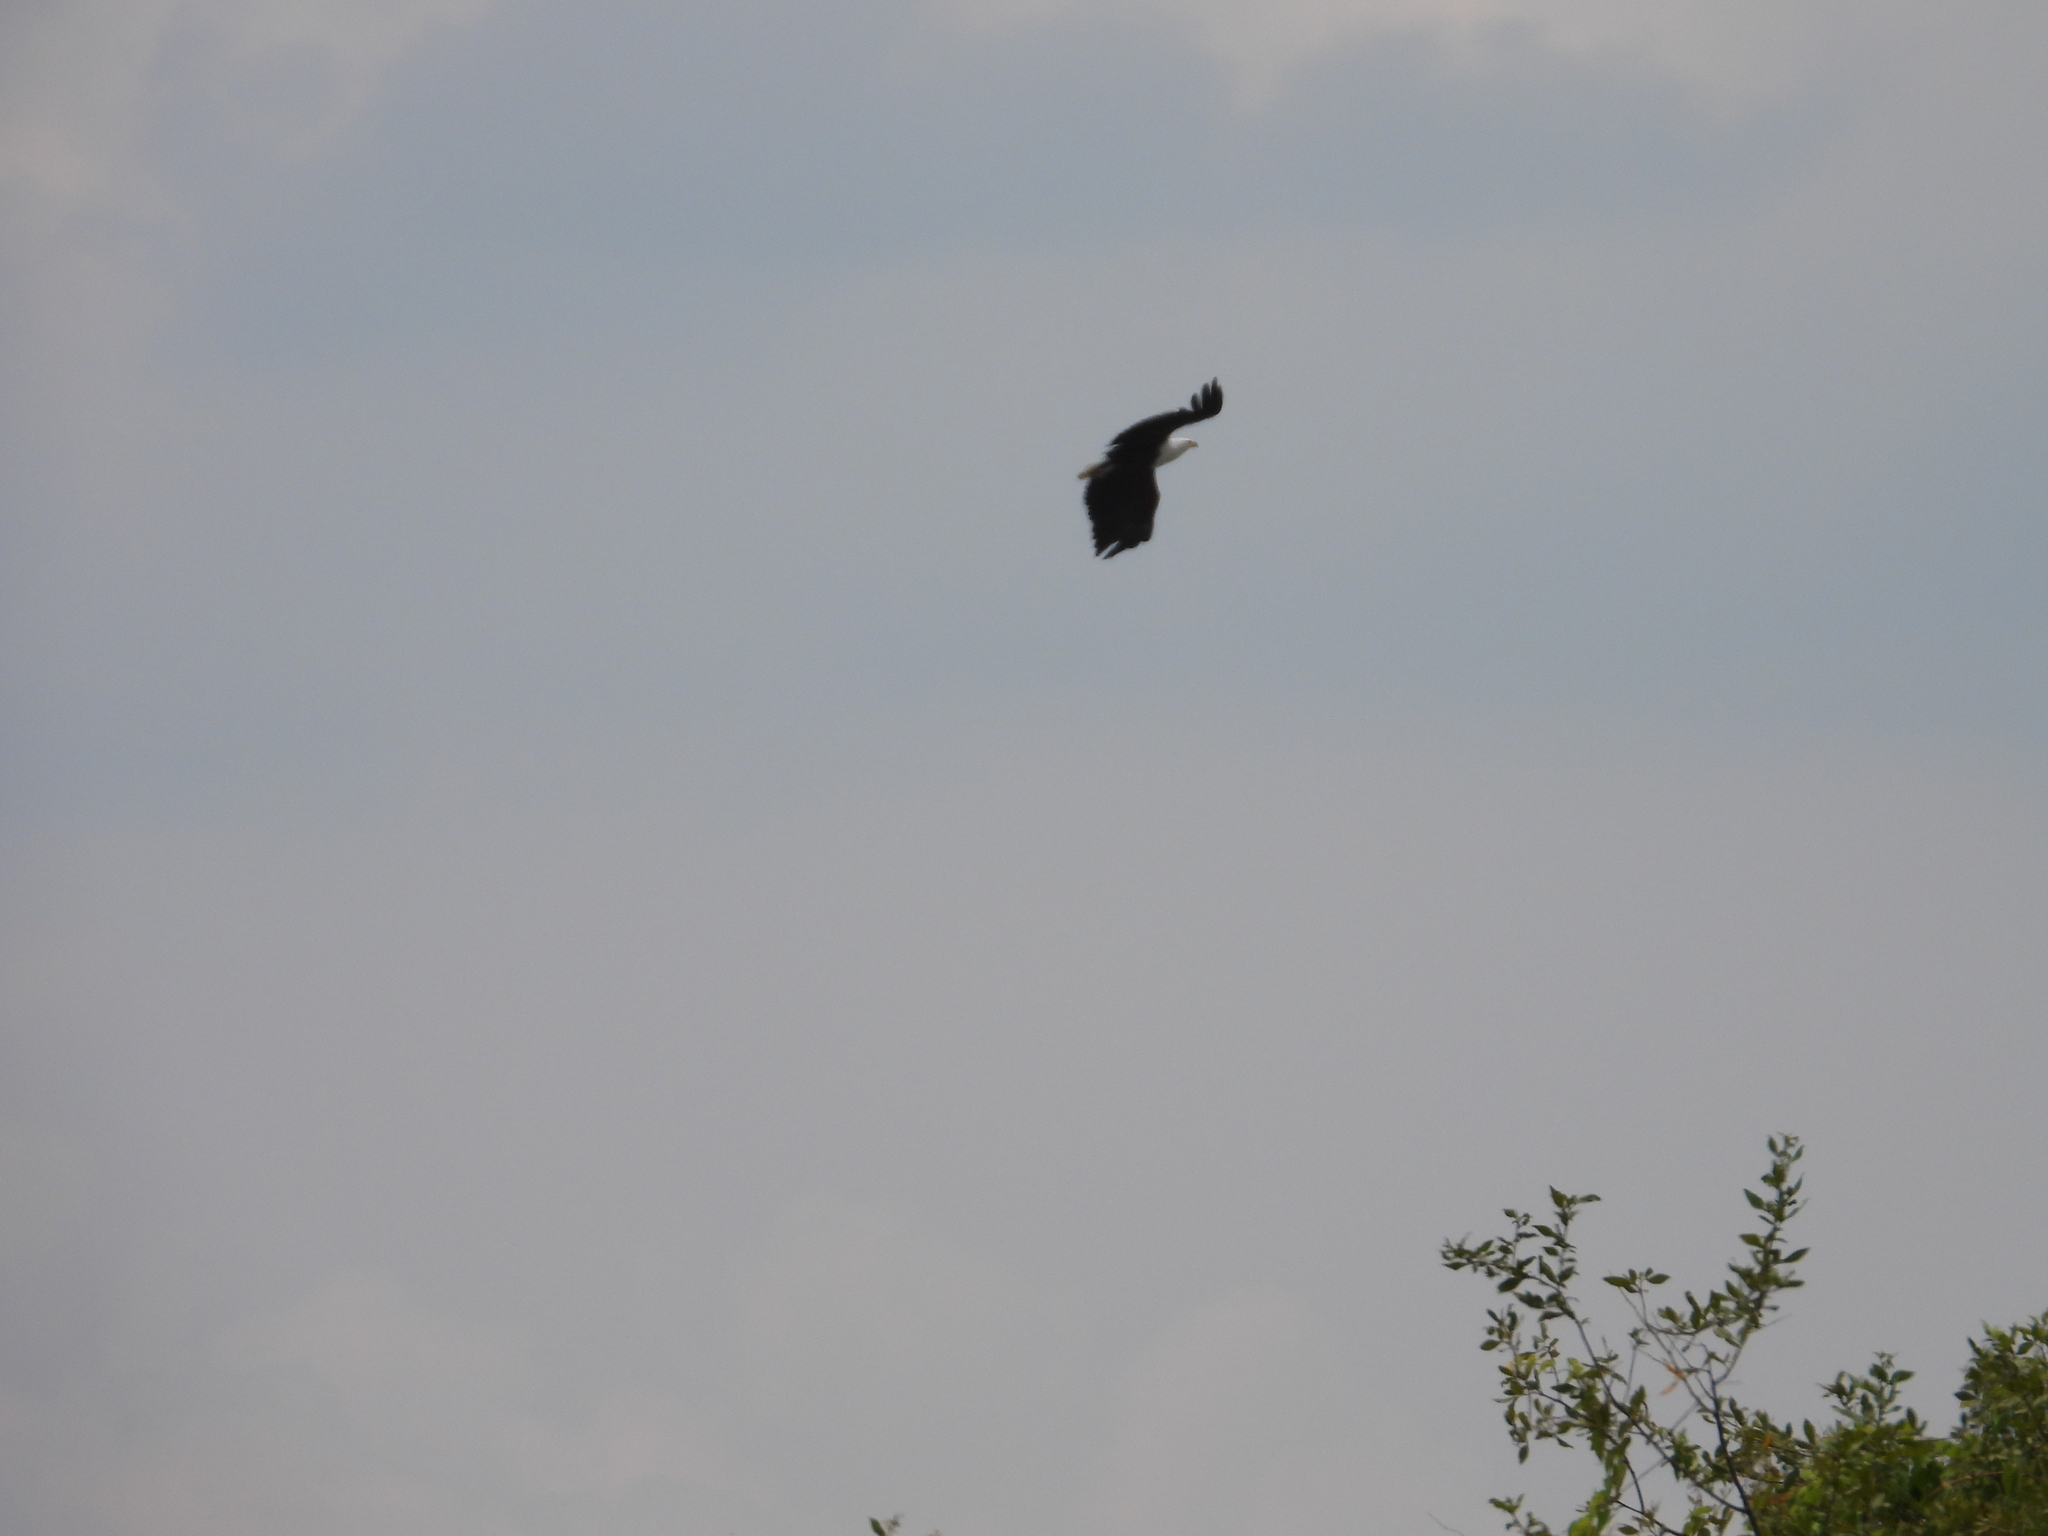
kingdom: Animalia
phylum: Chordata
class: Aves
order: Accipitriformes
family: Accipitridae
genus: Haliaeetus
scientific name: Haliaeetus vocifer
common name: African fish eagle
